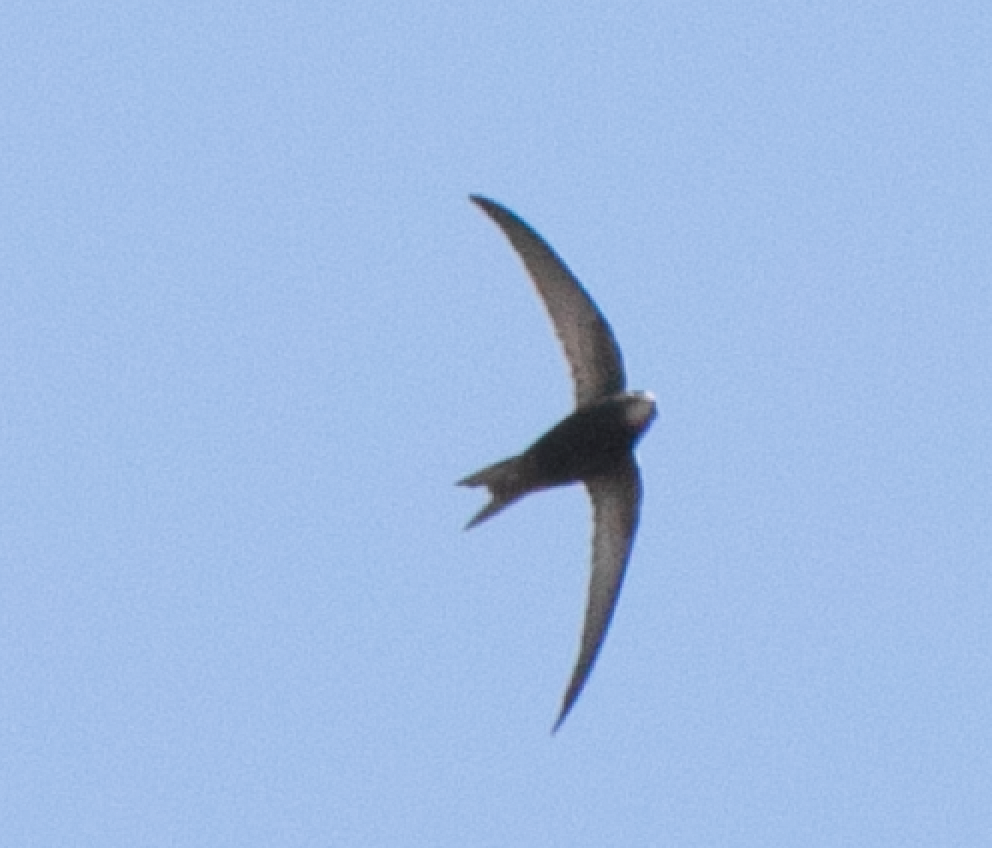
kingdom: Animalia
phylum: Chordata
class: Aves
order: Apodiformes
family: Apodidae
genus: Apus
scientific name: Apus apus
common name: Common swift
